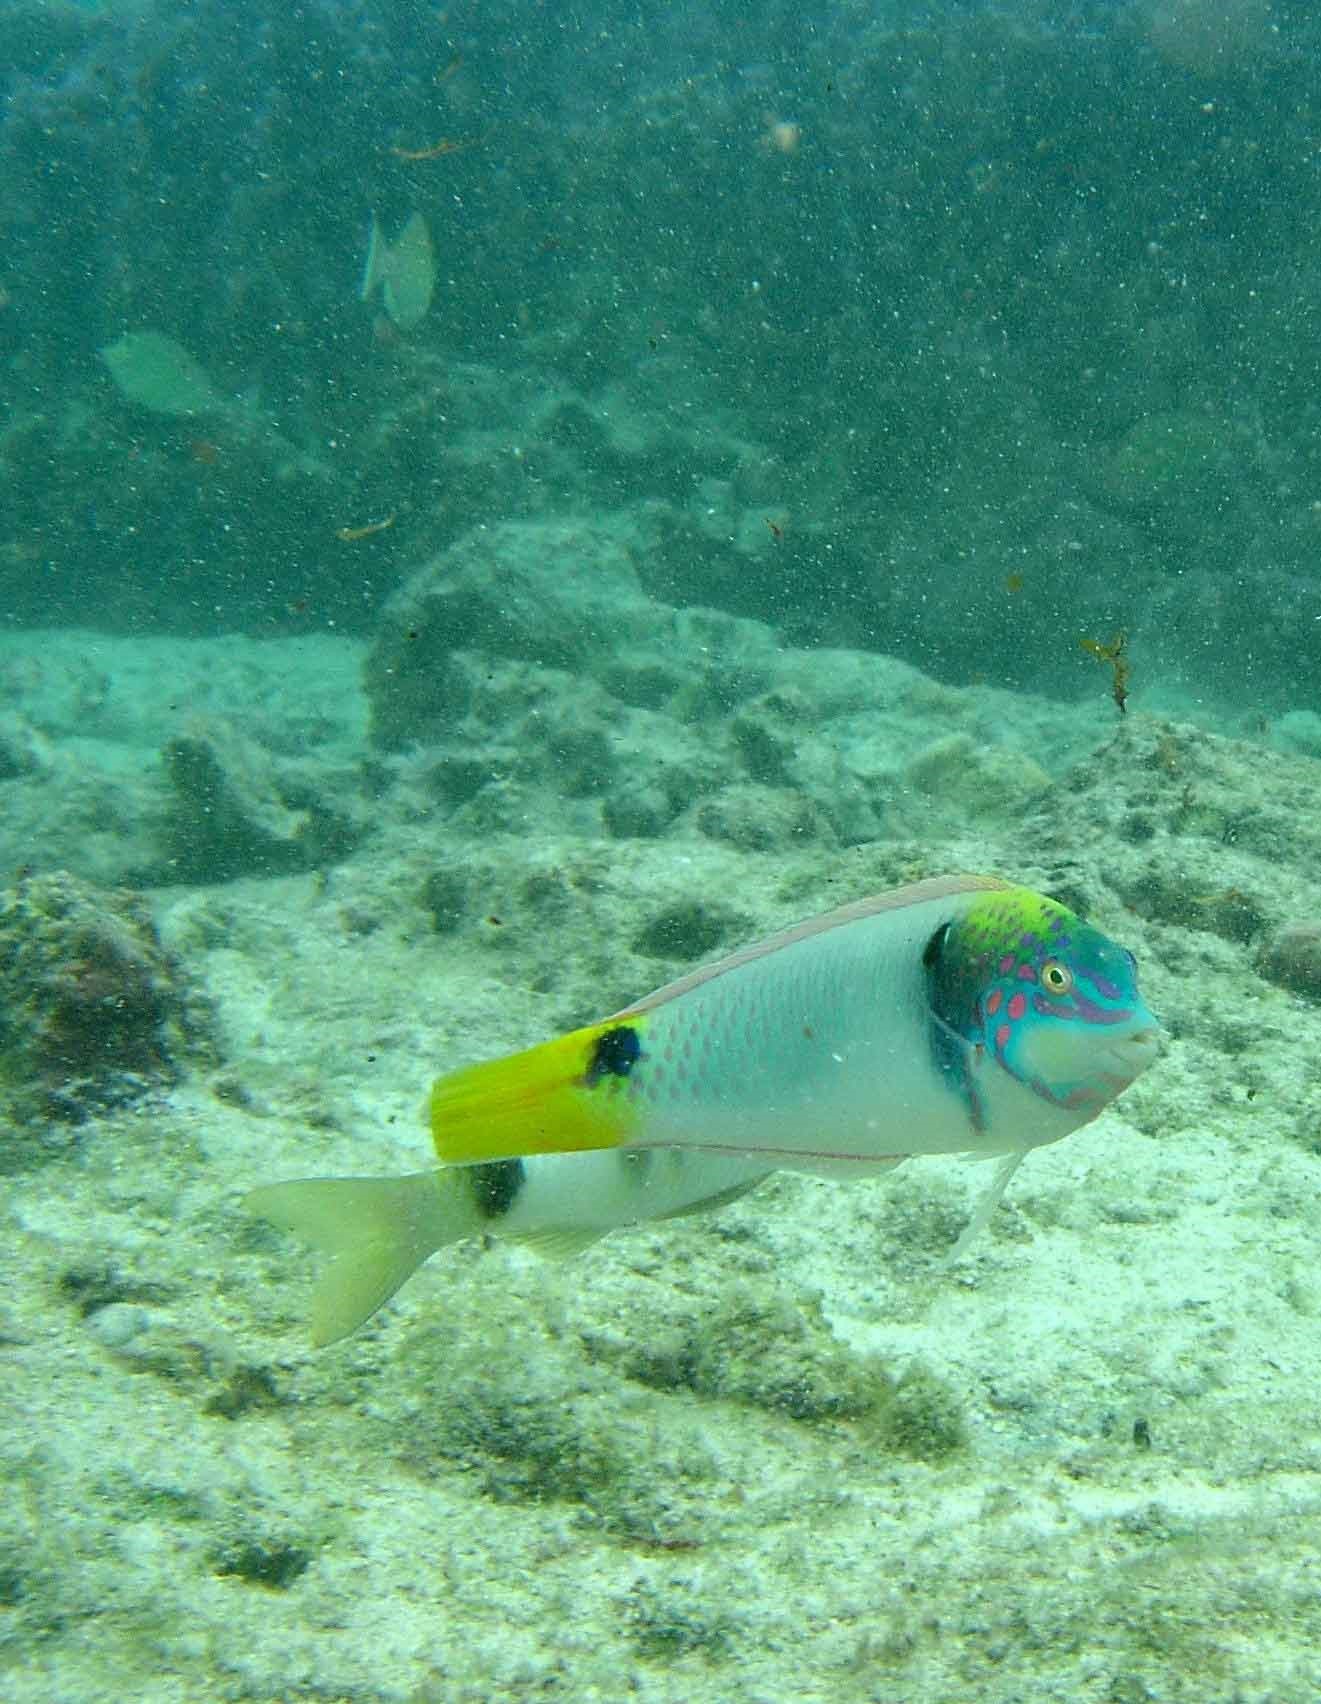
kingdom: Animalia
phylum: Chordata
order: Perciformes
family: Labridae
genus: Halichoeres
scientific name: Halichoeres trimaculatus
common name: Three-spot wrasse
